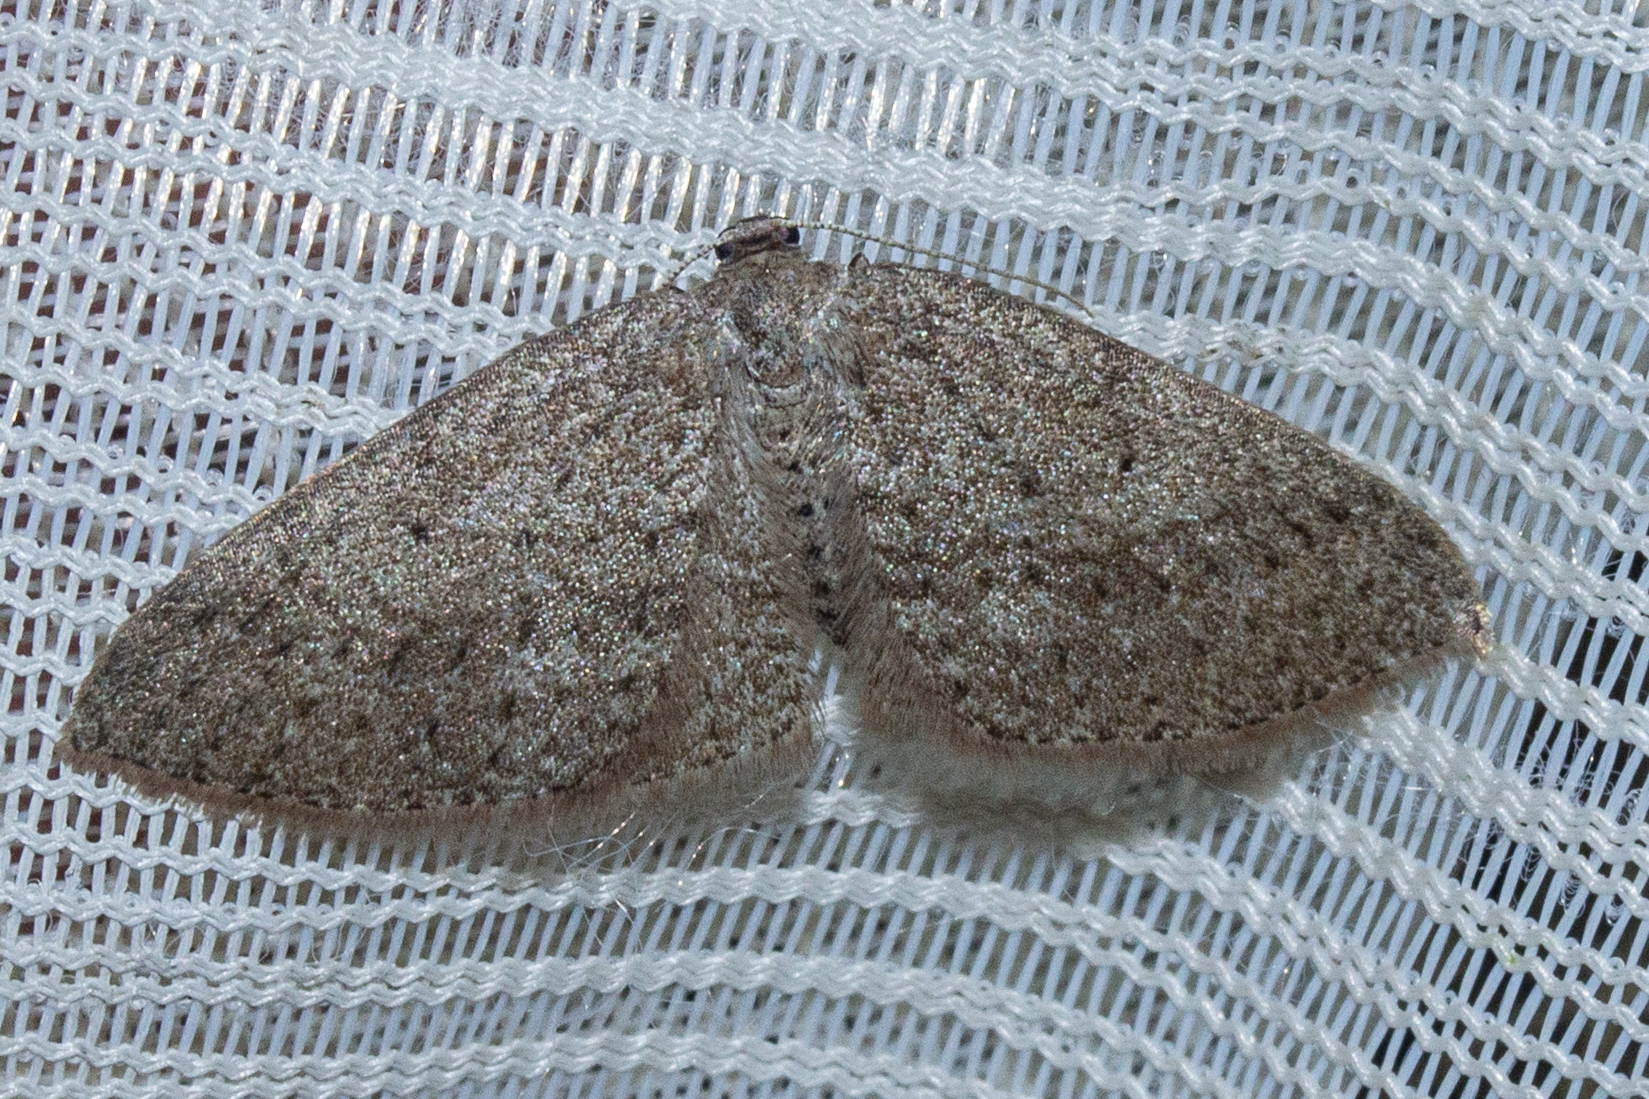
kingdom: Animalia
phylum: Arthropoda
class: Insecta
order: Lepidoptera
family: Geometridae
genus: Poecilasthena
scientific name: Poecilasthena schistaria
